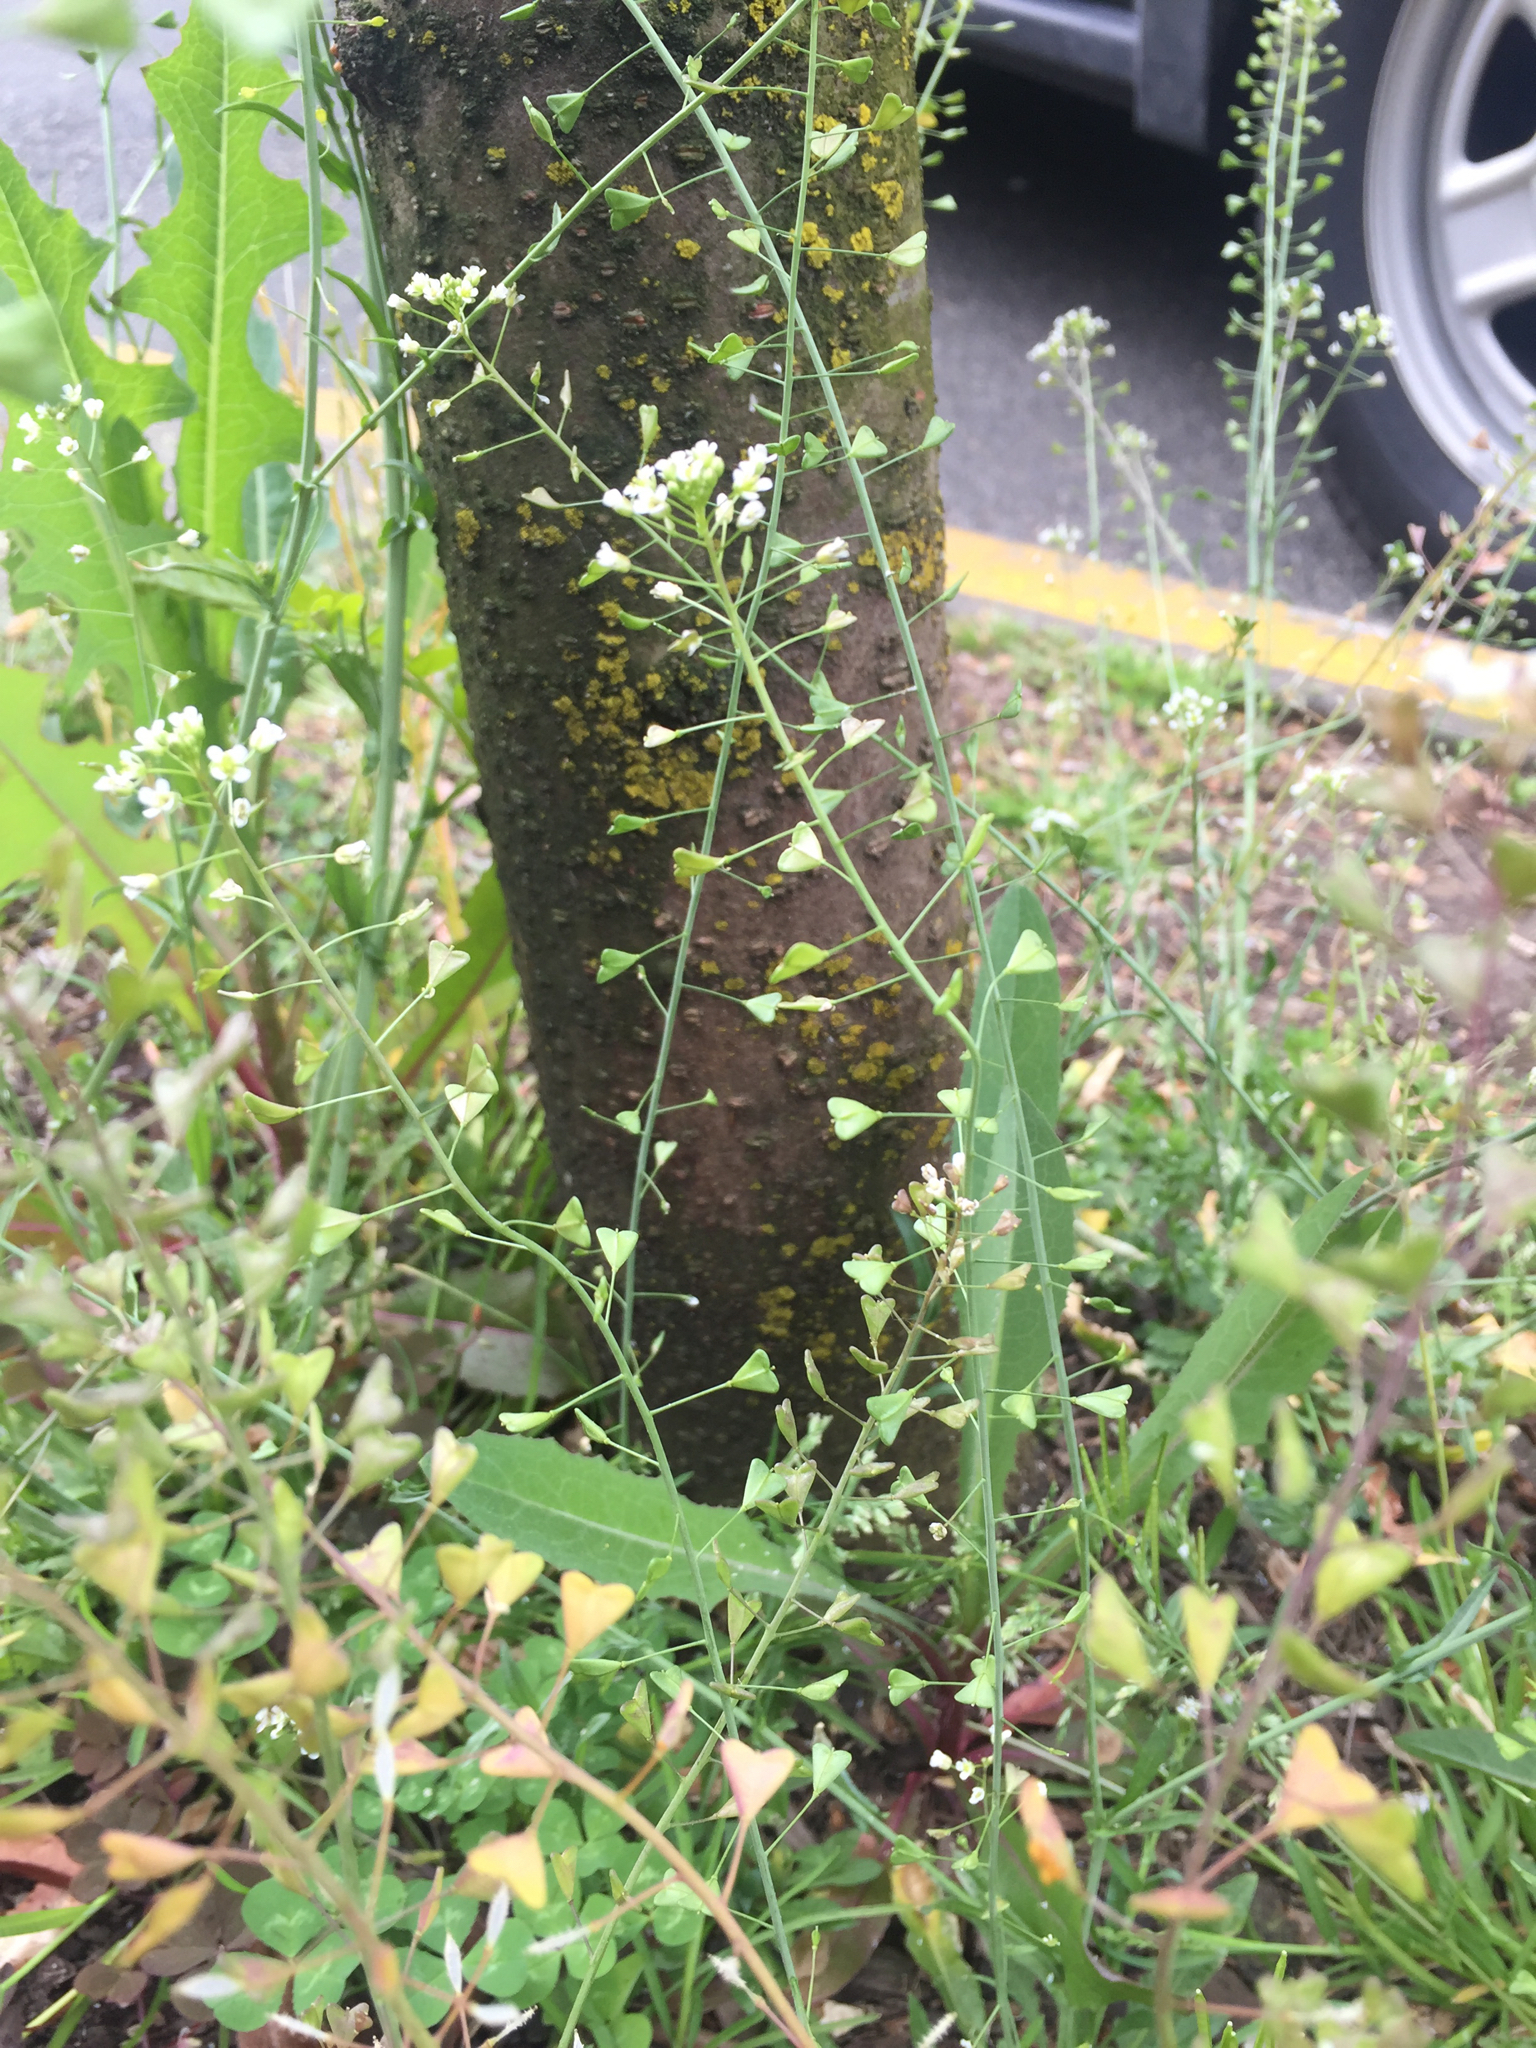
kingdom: Plantae
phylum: Tracheophyta
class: Magnoliopsida
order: Brassicales
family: Brassicaceae
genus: Capsella
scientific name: Capsella bursa-pastoris
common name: Shepherd's purse
